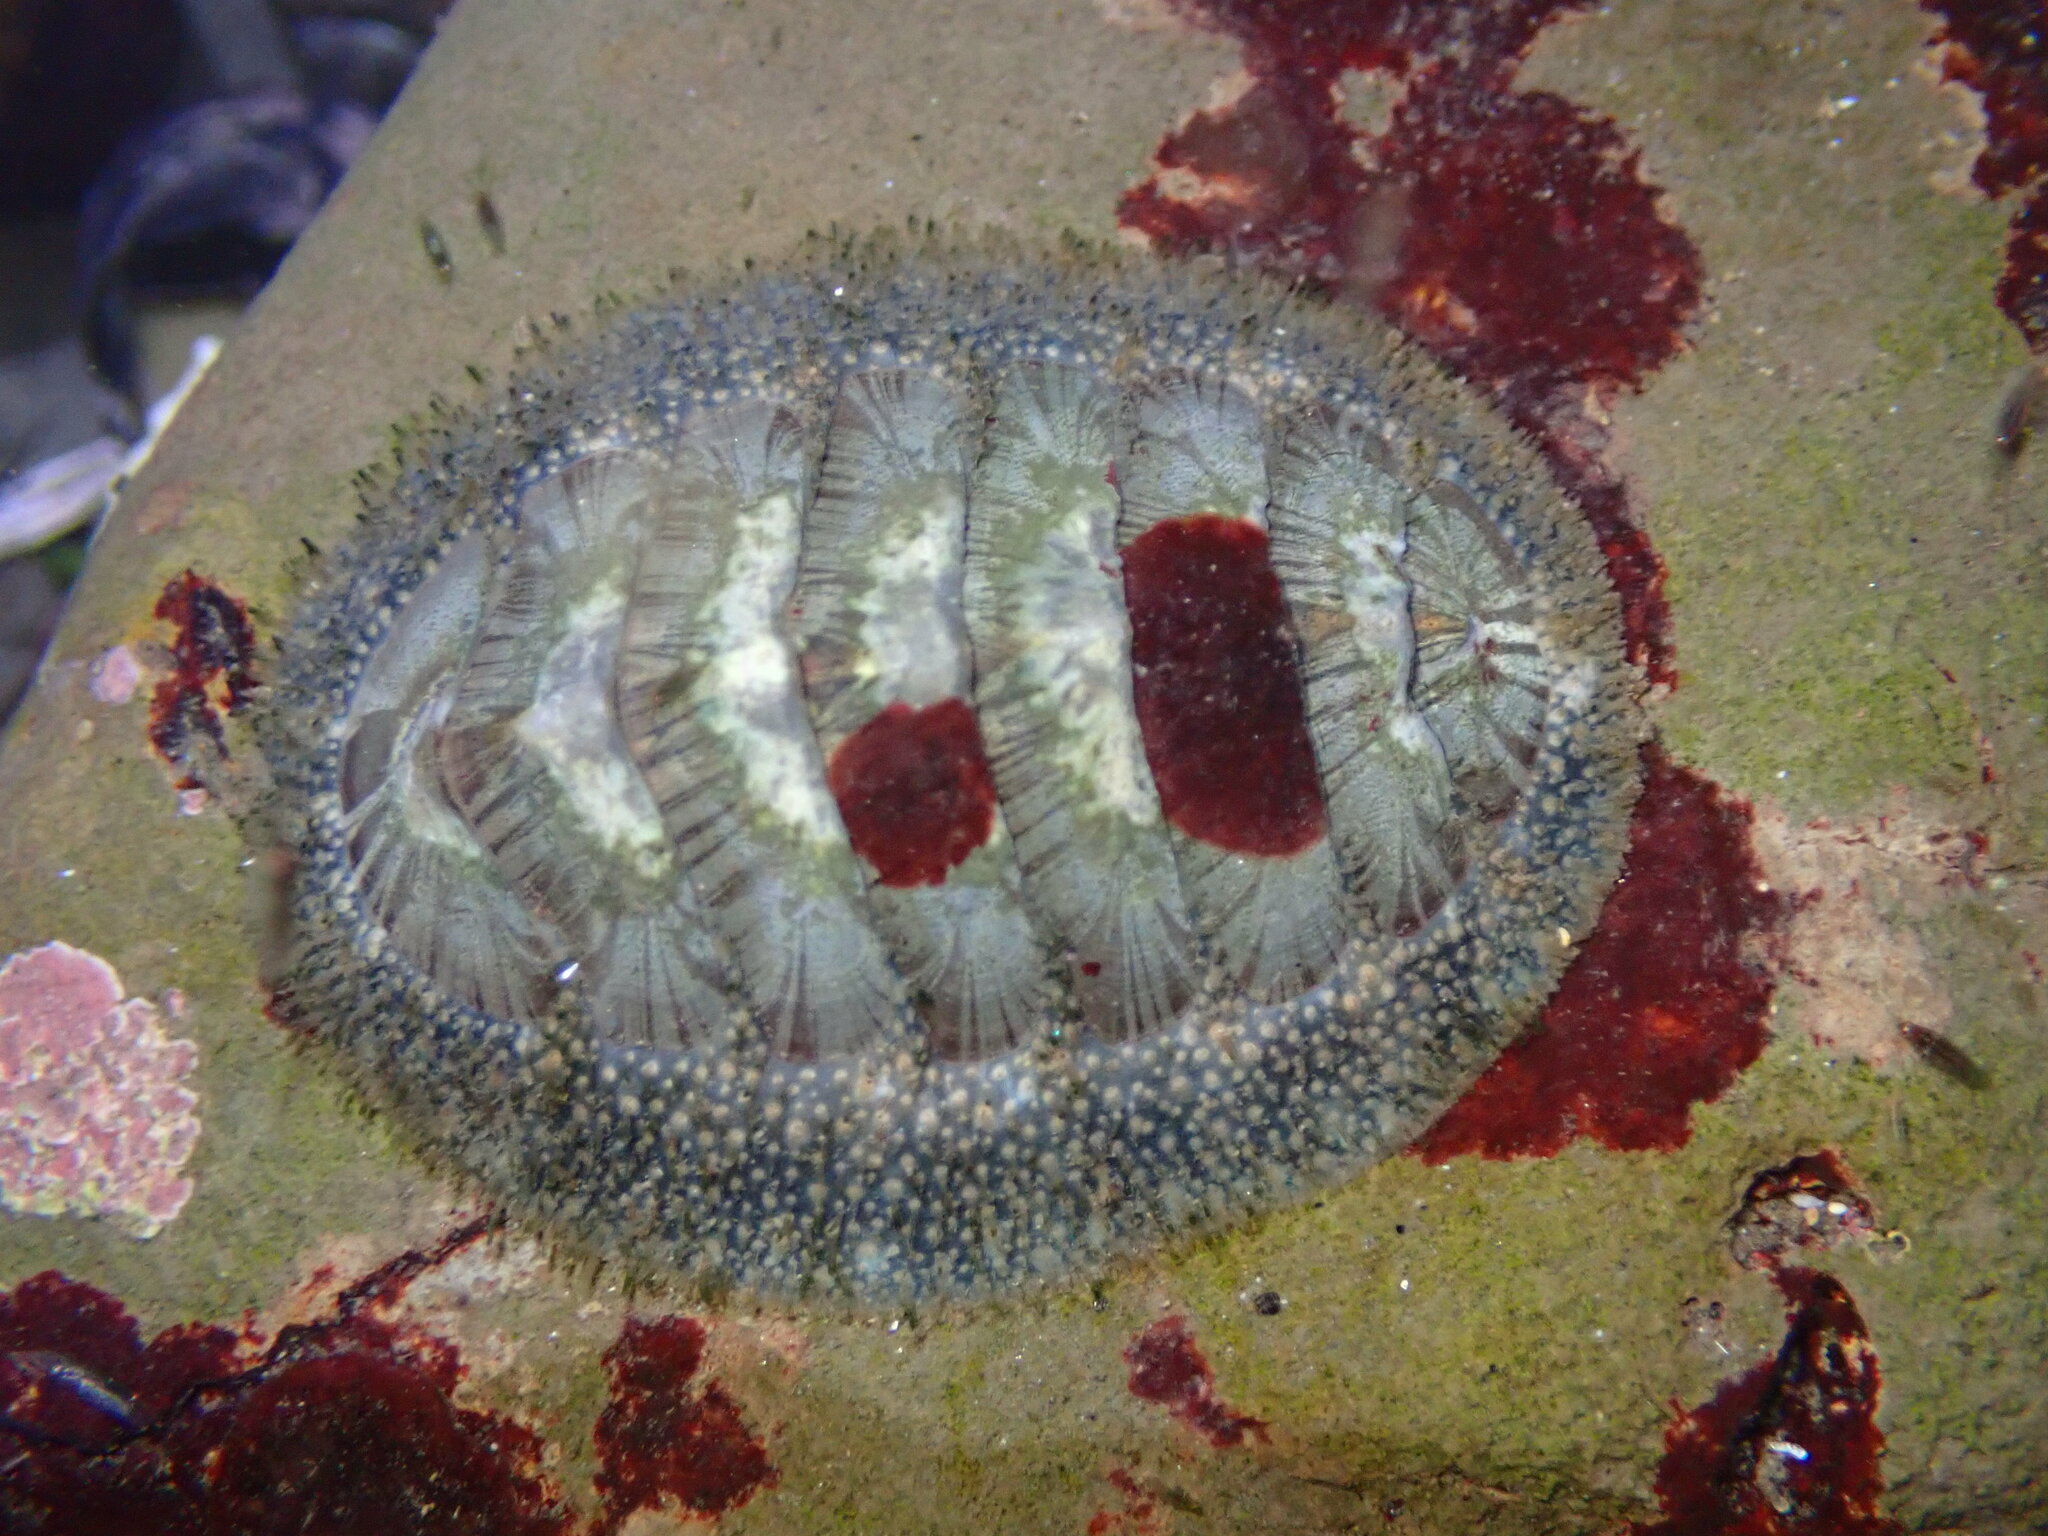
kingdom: Animalia
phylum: Mollusca
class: Polyplacophora
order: Chitonida
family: Mopaliidae
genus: Mopalia
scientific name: Mopalia lignosa
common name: Woody chiton
